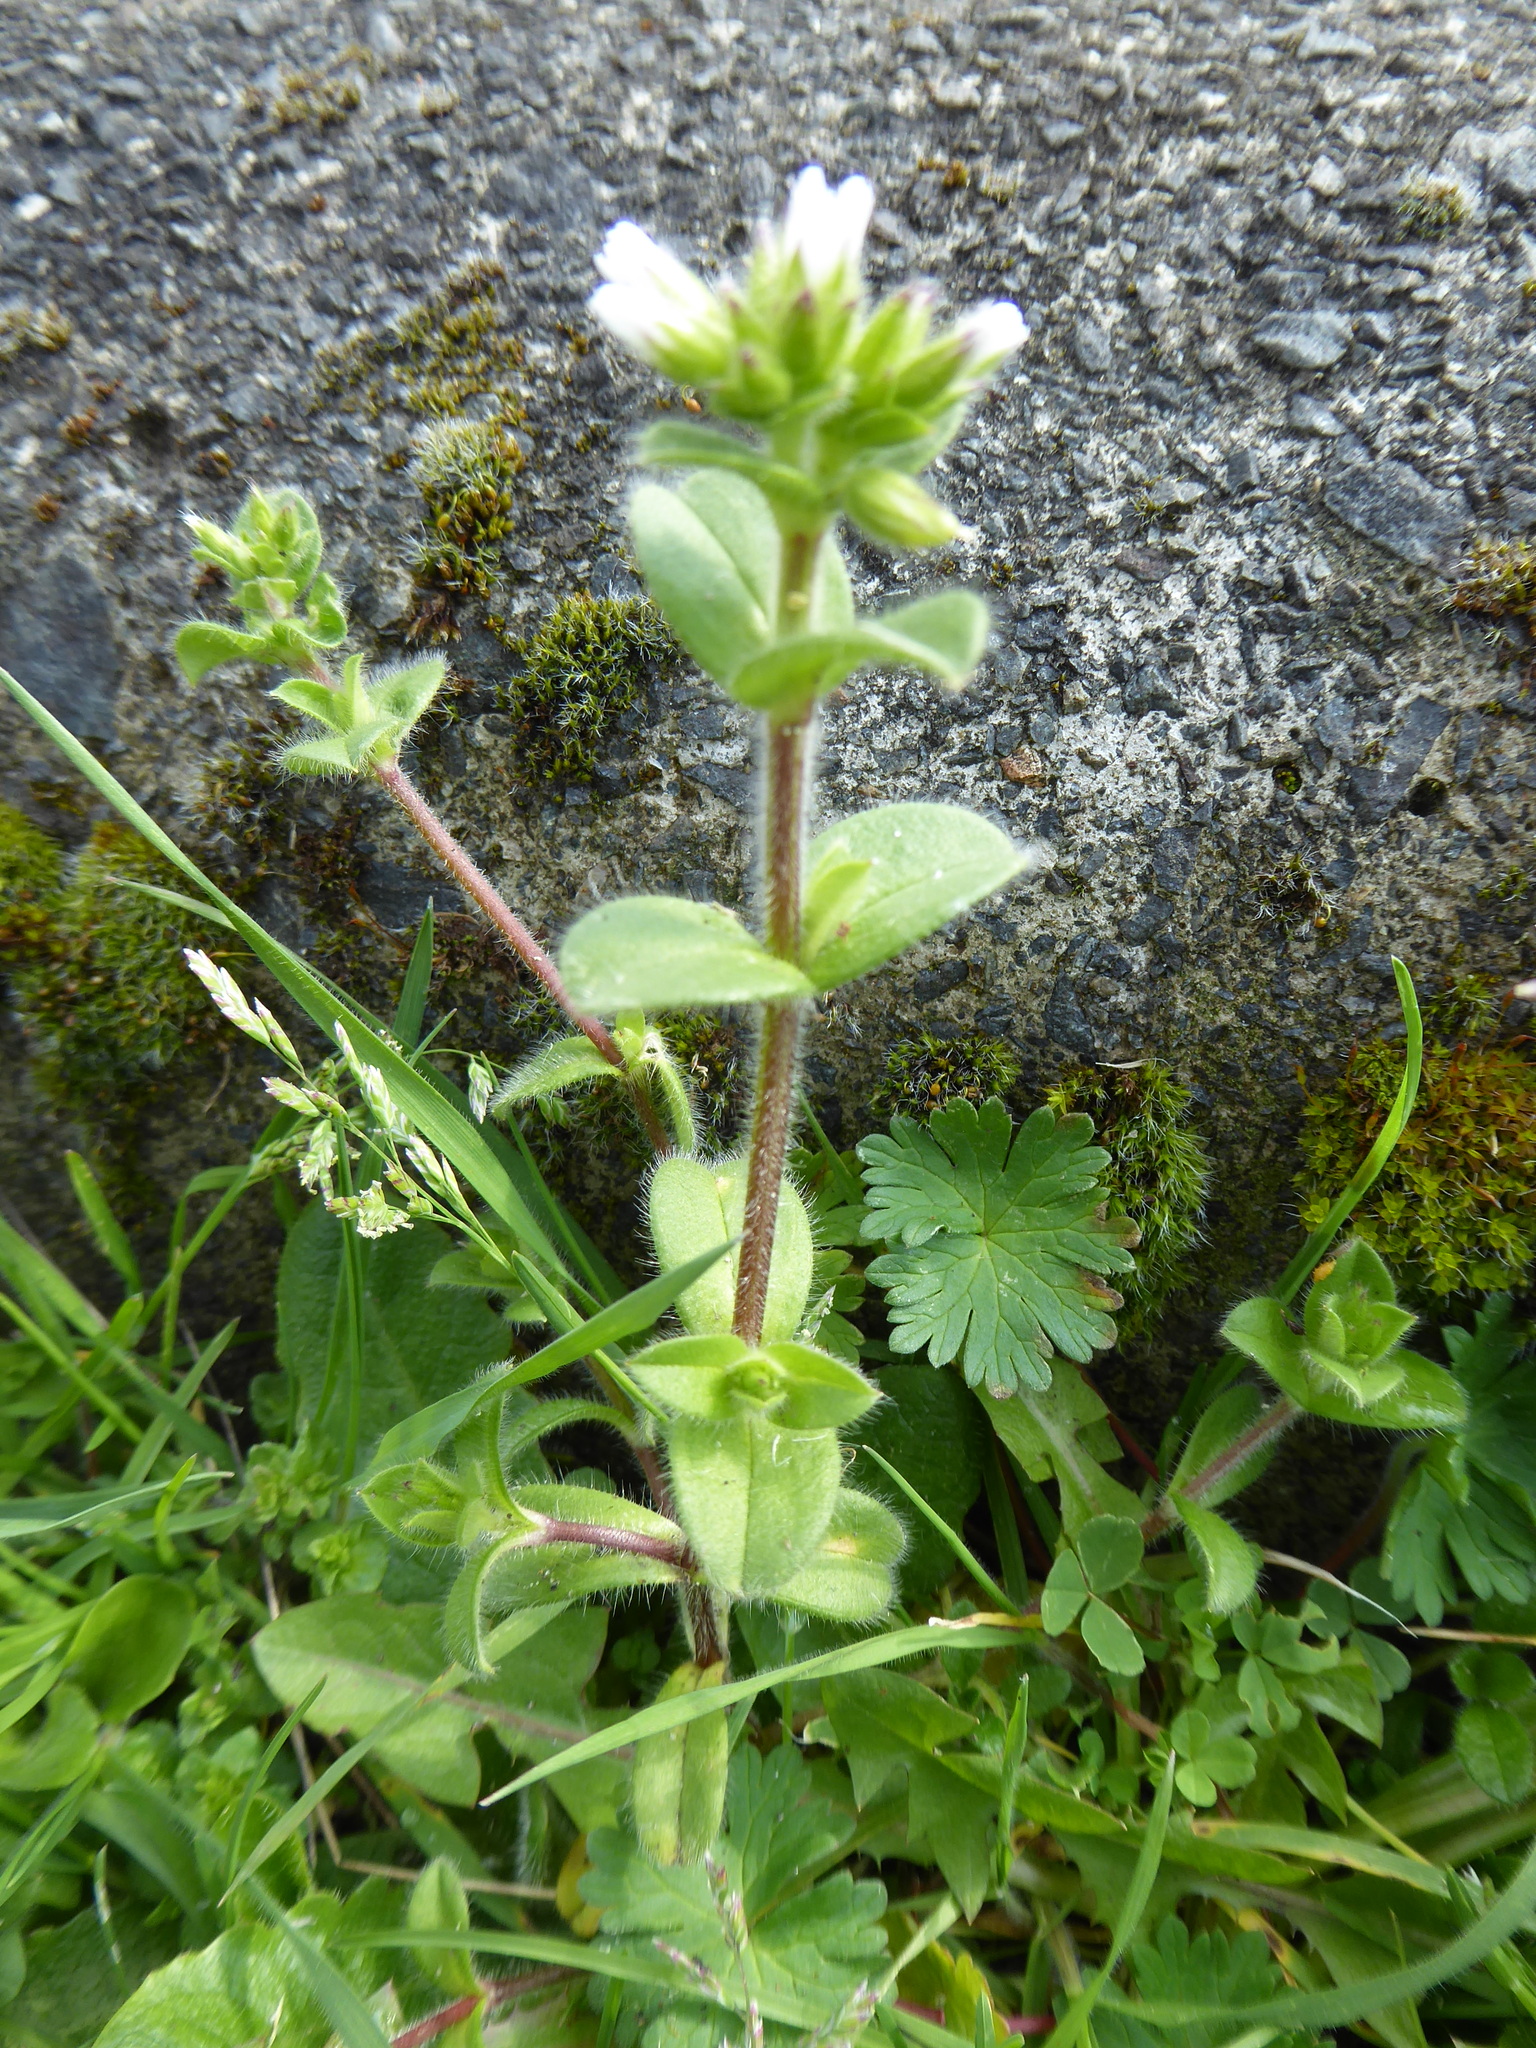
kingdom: Plantae
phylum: Tracheophyta
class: Magnoliopsida
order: Caryophyllales
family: Caryophyllaceae
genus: Cerastium
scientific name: Cerastium glomeratum
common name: Sticky chickweed
